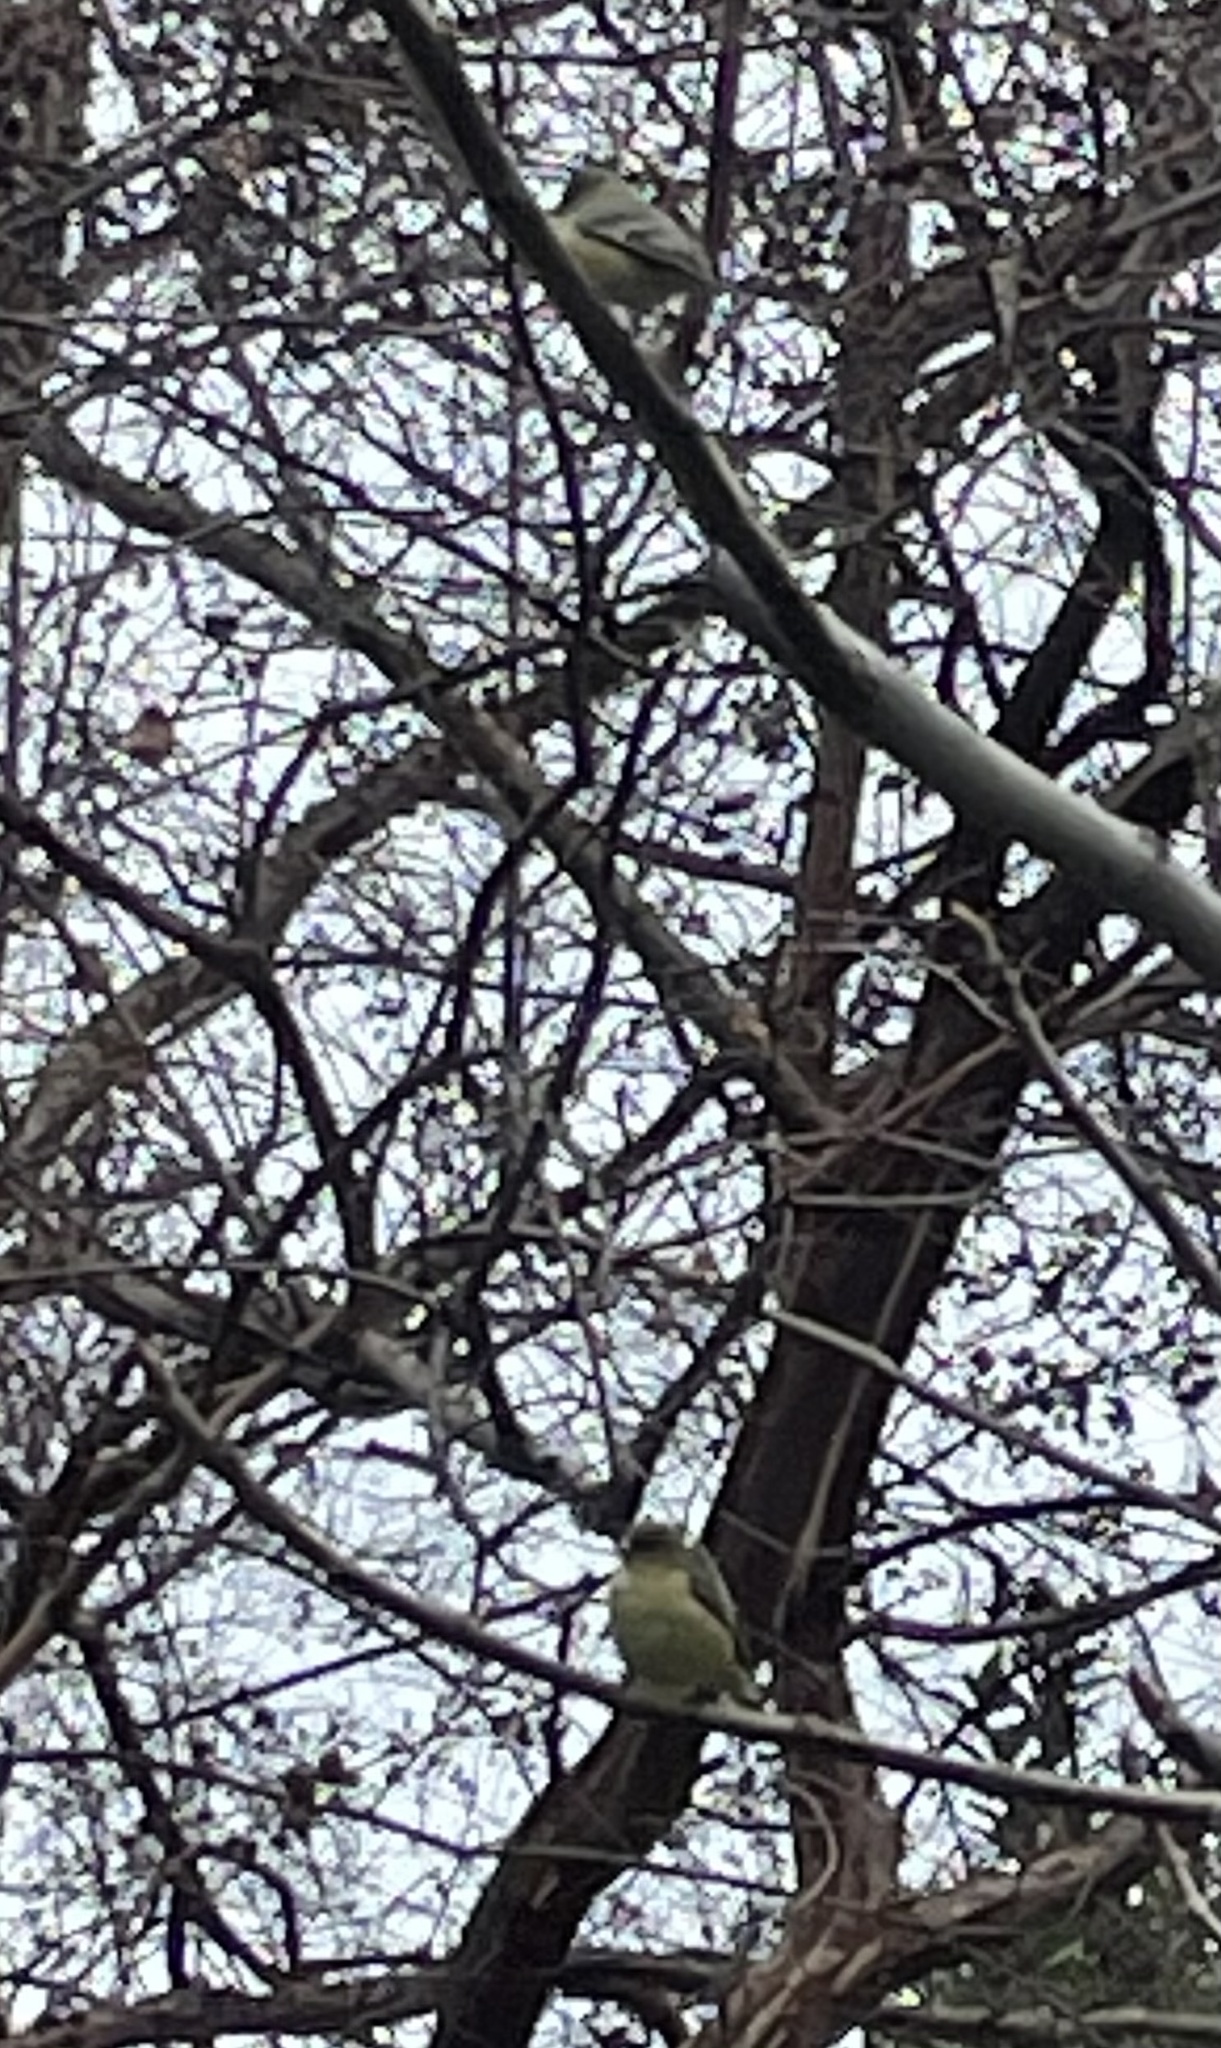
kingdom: Animalia
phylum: Chordata
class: Aves
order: Passeriformes
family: Fringillidae
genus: Spinus
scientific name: Spinus psaltria
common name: Lesser goldfinch
